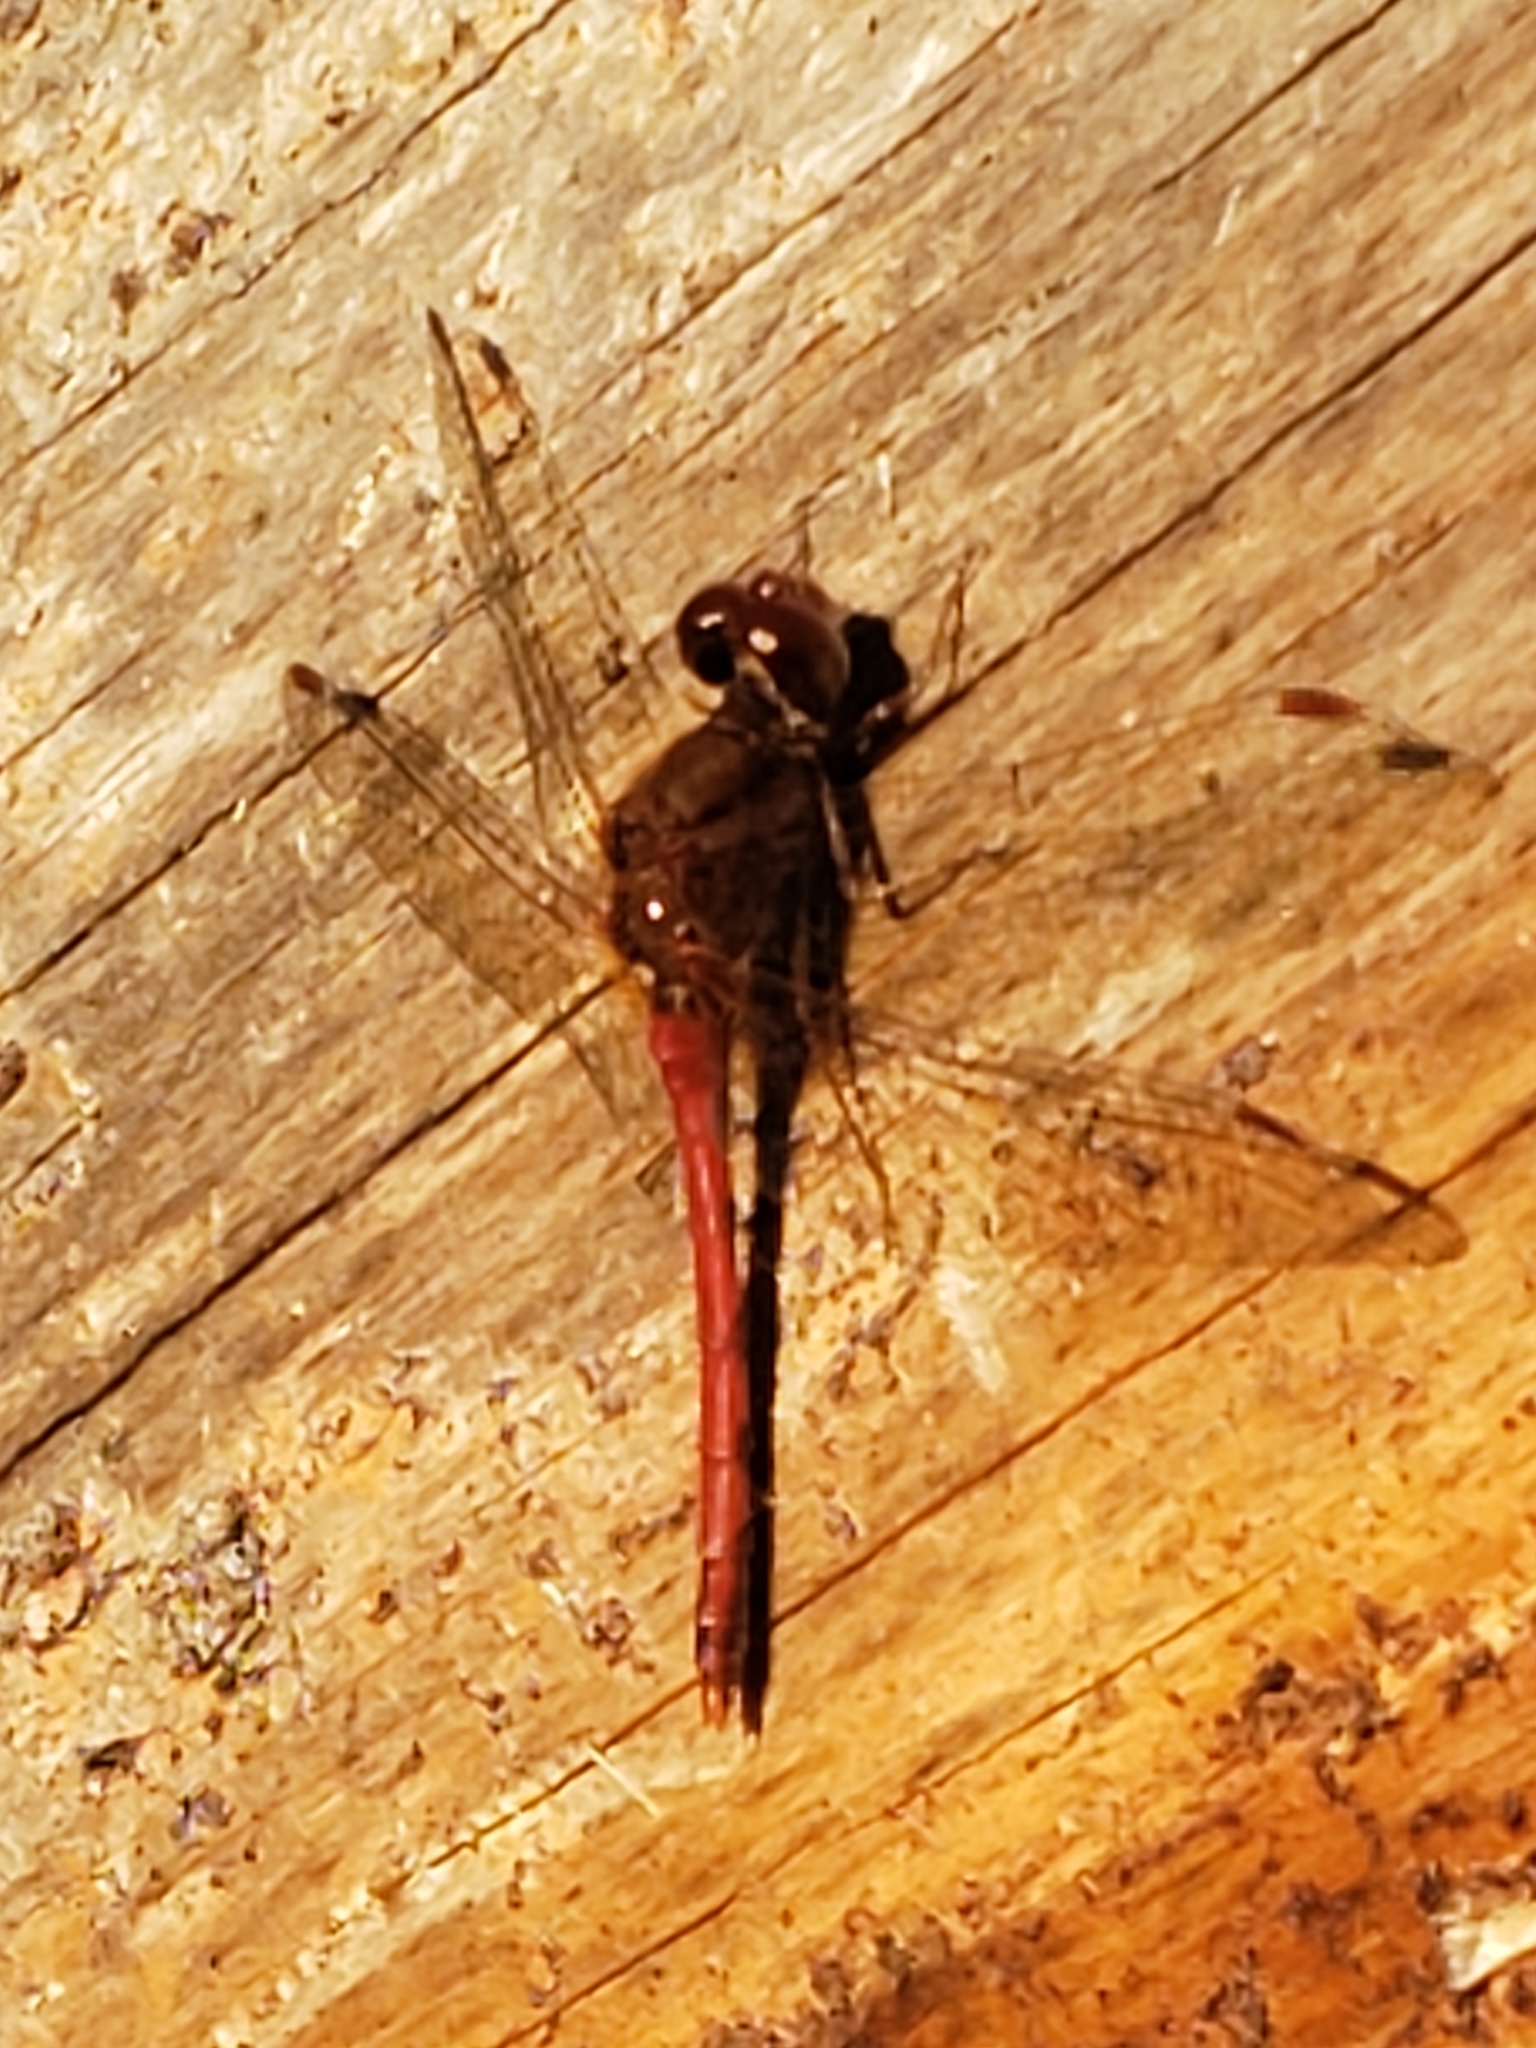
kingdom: Animalia
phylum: Arthropoda
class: Insecta
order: Odonata
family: Libellulidae
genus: Sympetrum
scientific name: Sympetrum vicinum
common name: Autumn meadowhawk
